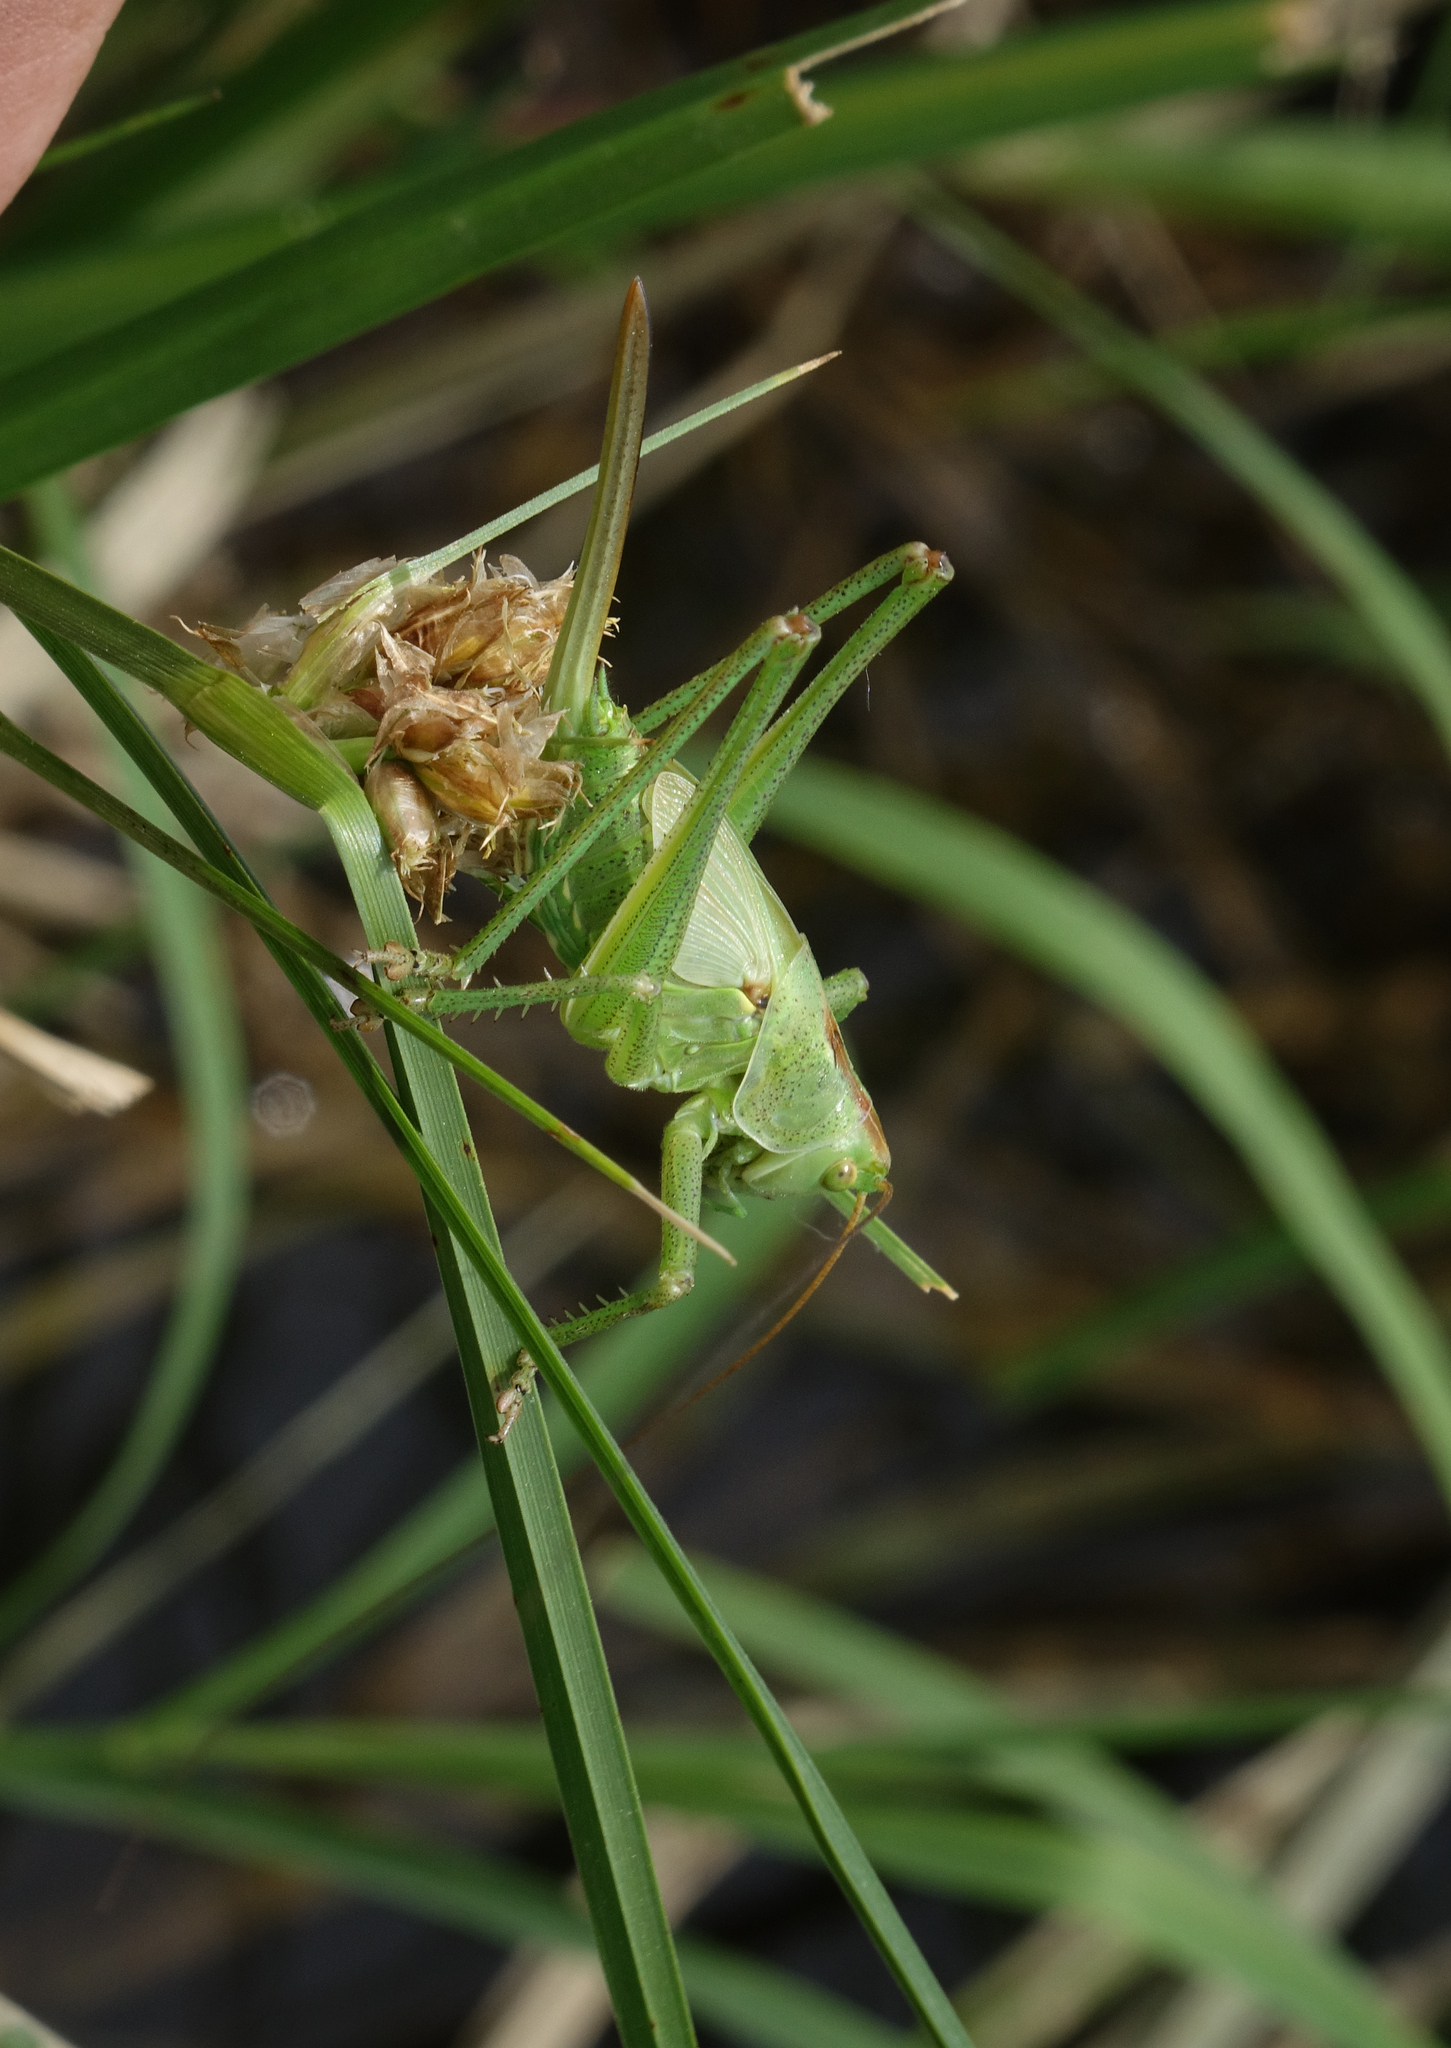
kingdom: Animalia
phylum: Arthropoda
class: Insecta
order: Orthoptera
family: Tettigoniidae
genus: Tettigonia
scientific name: Tettigonia viridissima
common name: Great green bush-cricket
